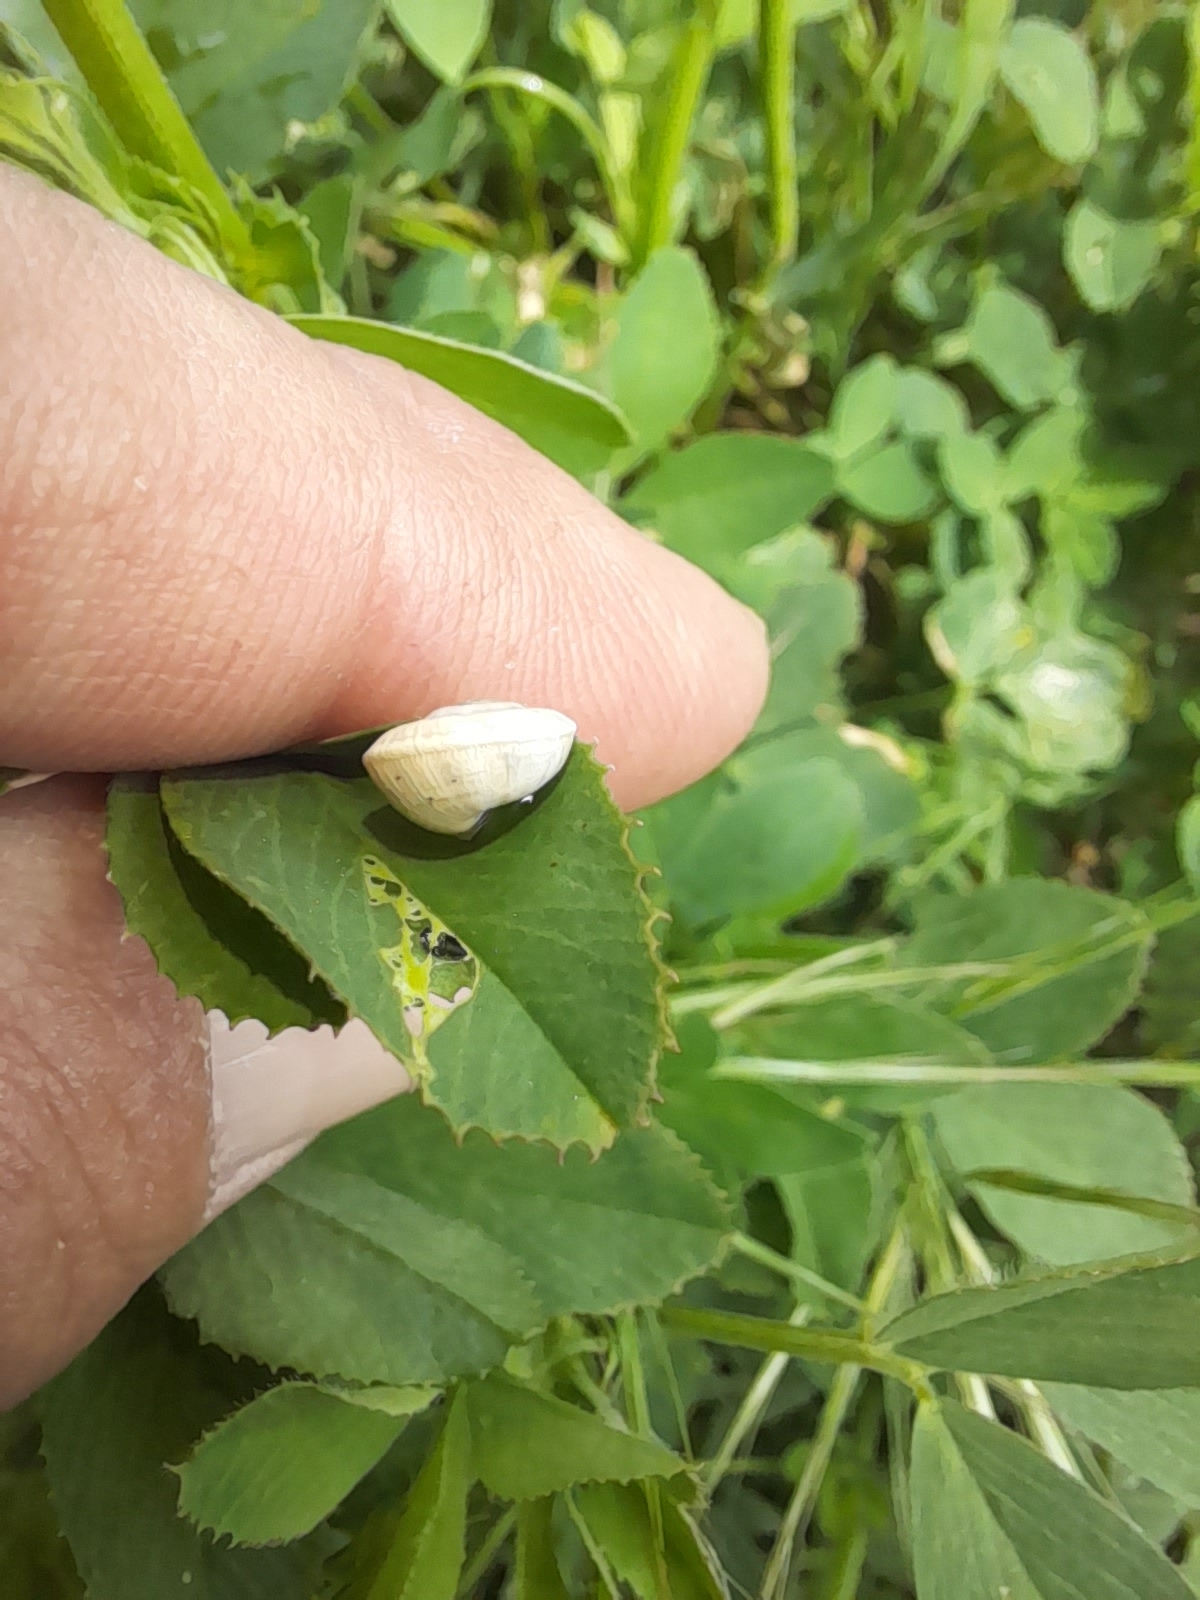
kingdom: Animalia
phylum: Mollusca
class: Gastropoda
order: Stylommatophora
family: Helicidae
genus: Theba
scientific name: Theba pisana
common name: White snail
